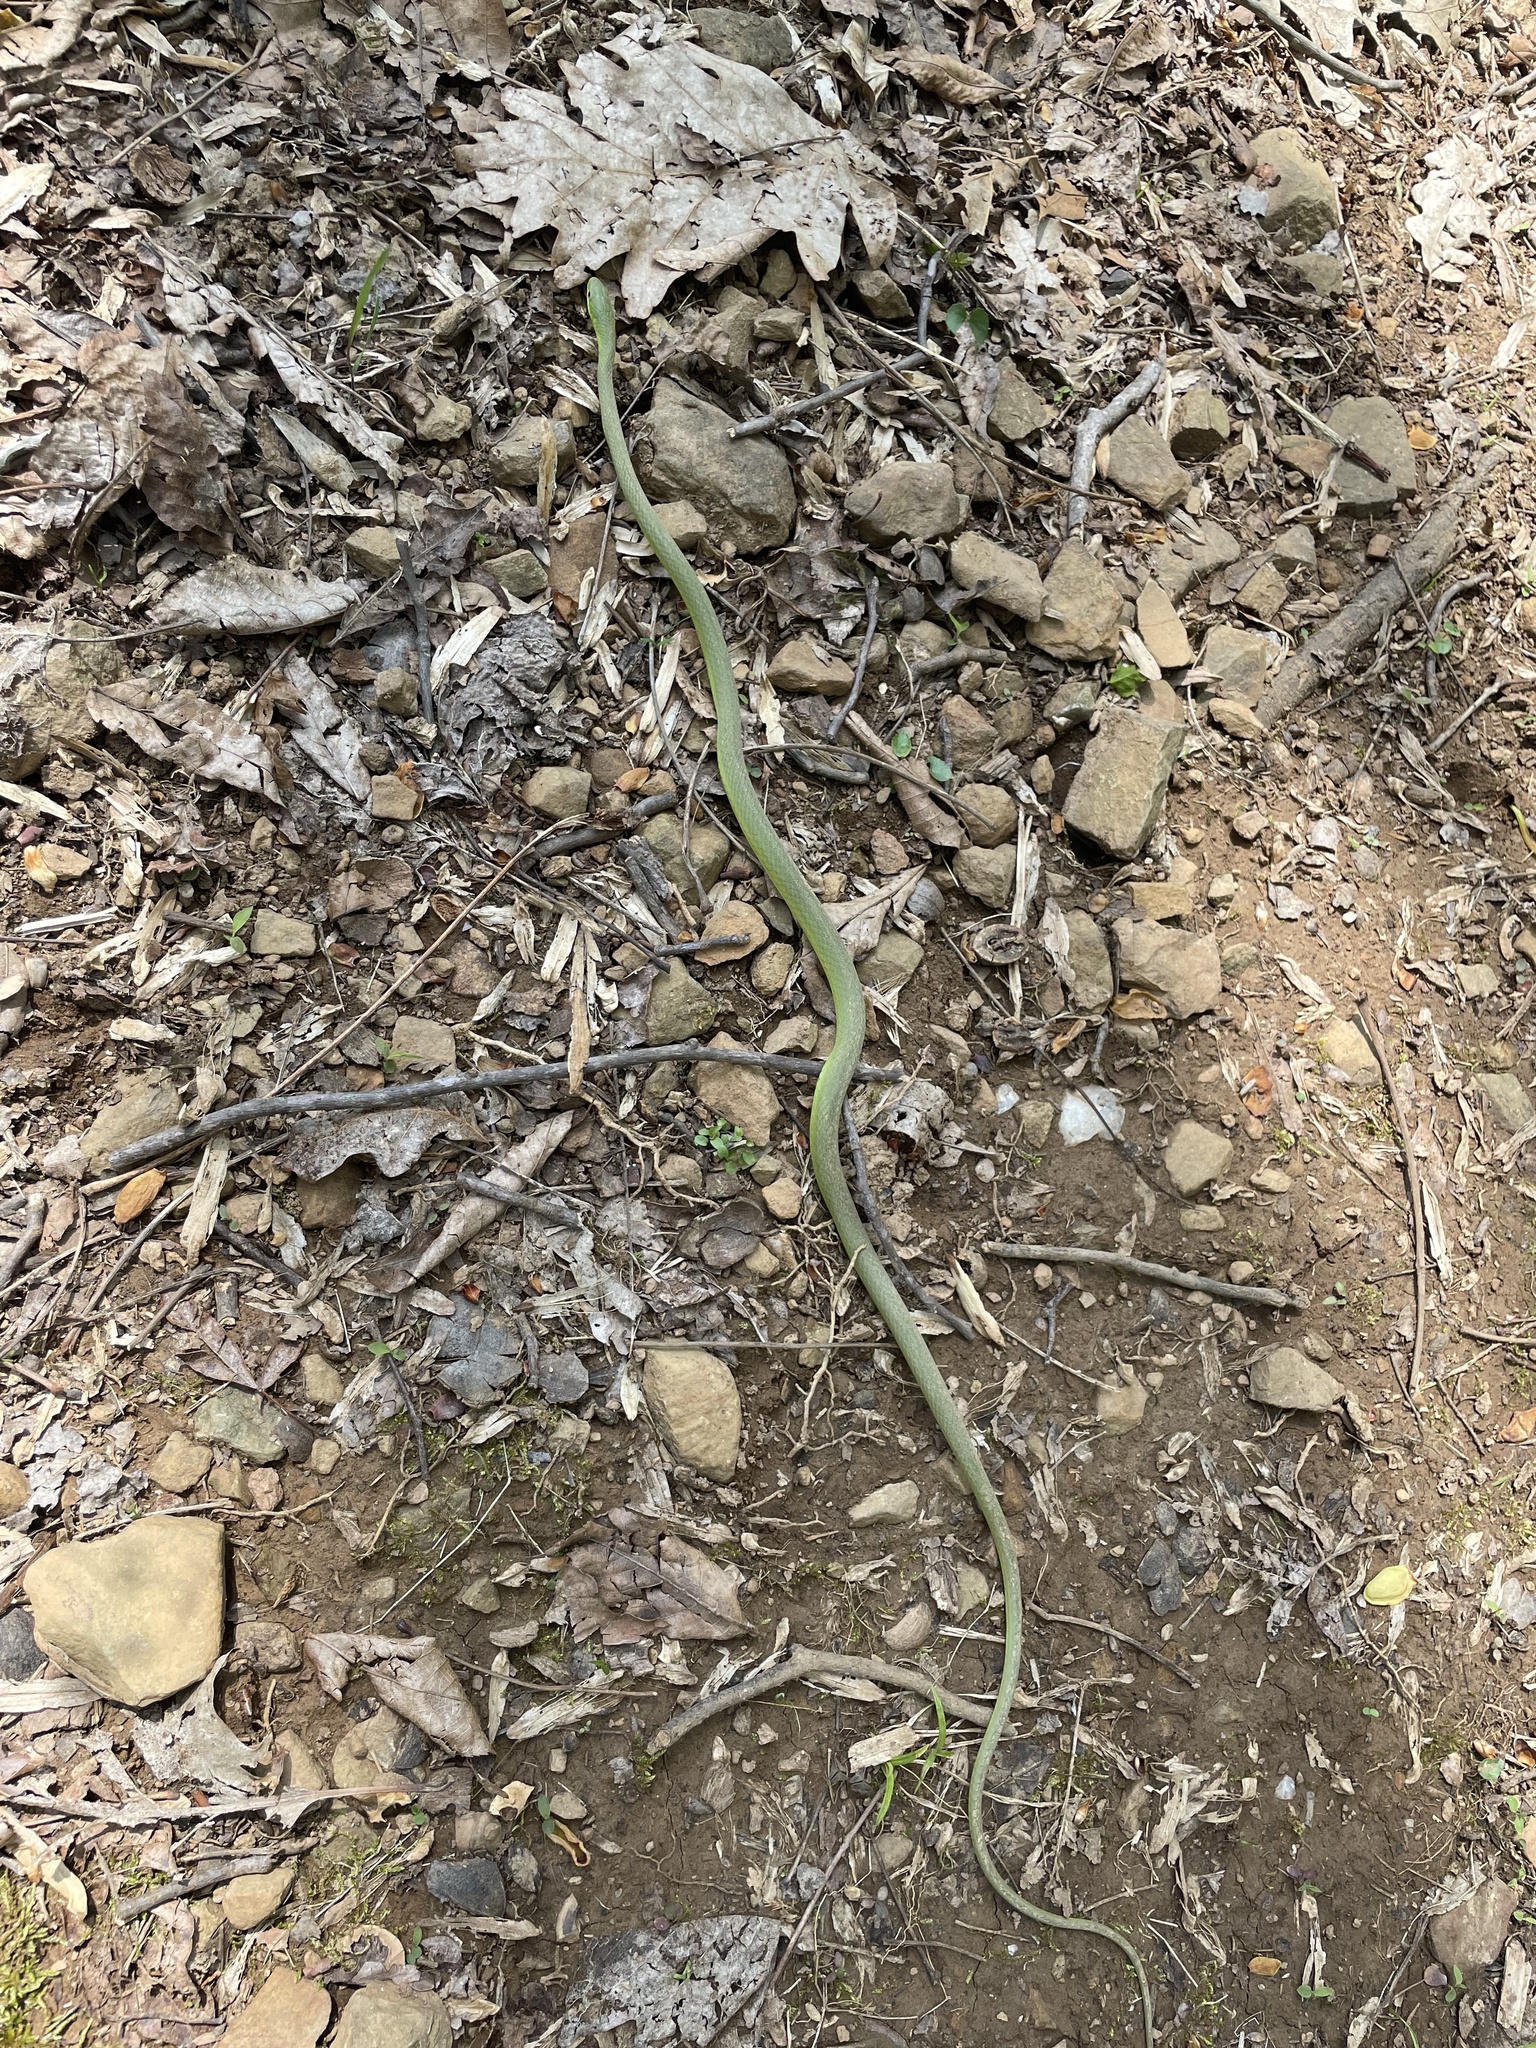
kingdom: Animalia
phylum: Chordata
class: Squamata
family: Colubridae
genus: Opheodrys
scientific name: Opheodrys aestivus
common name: Rough greensnake
